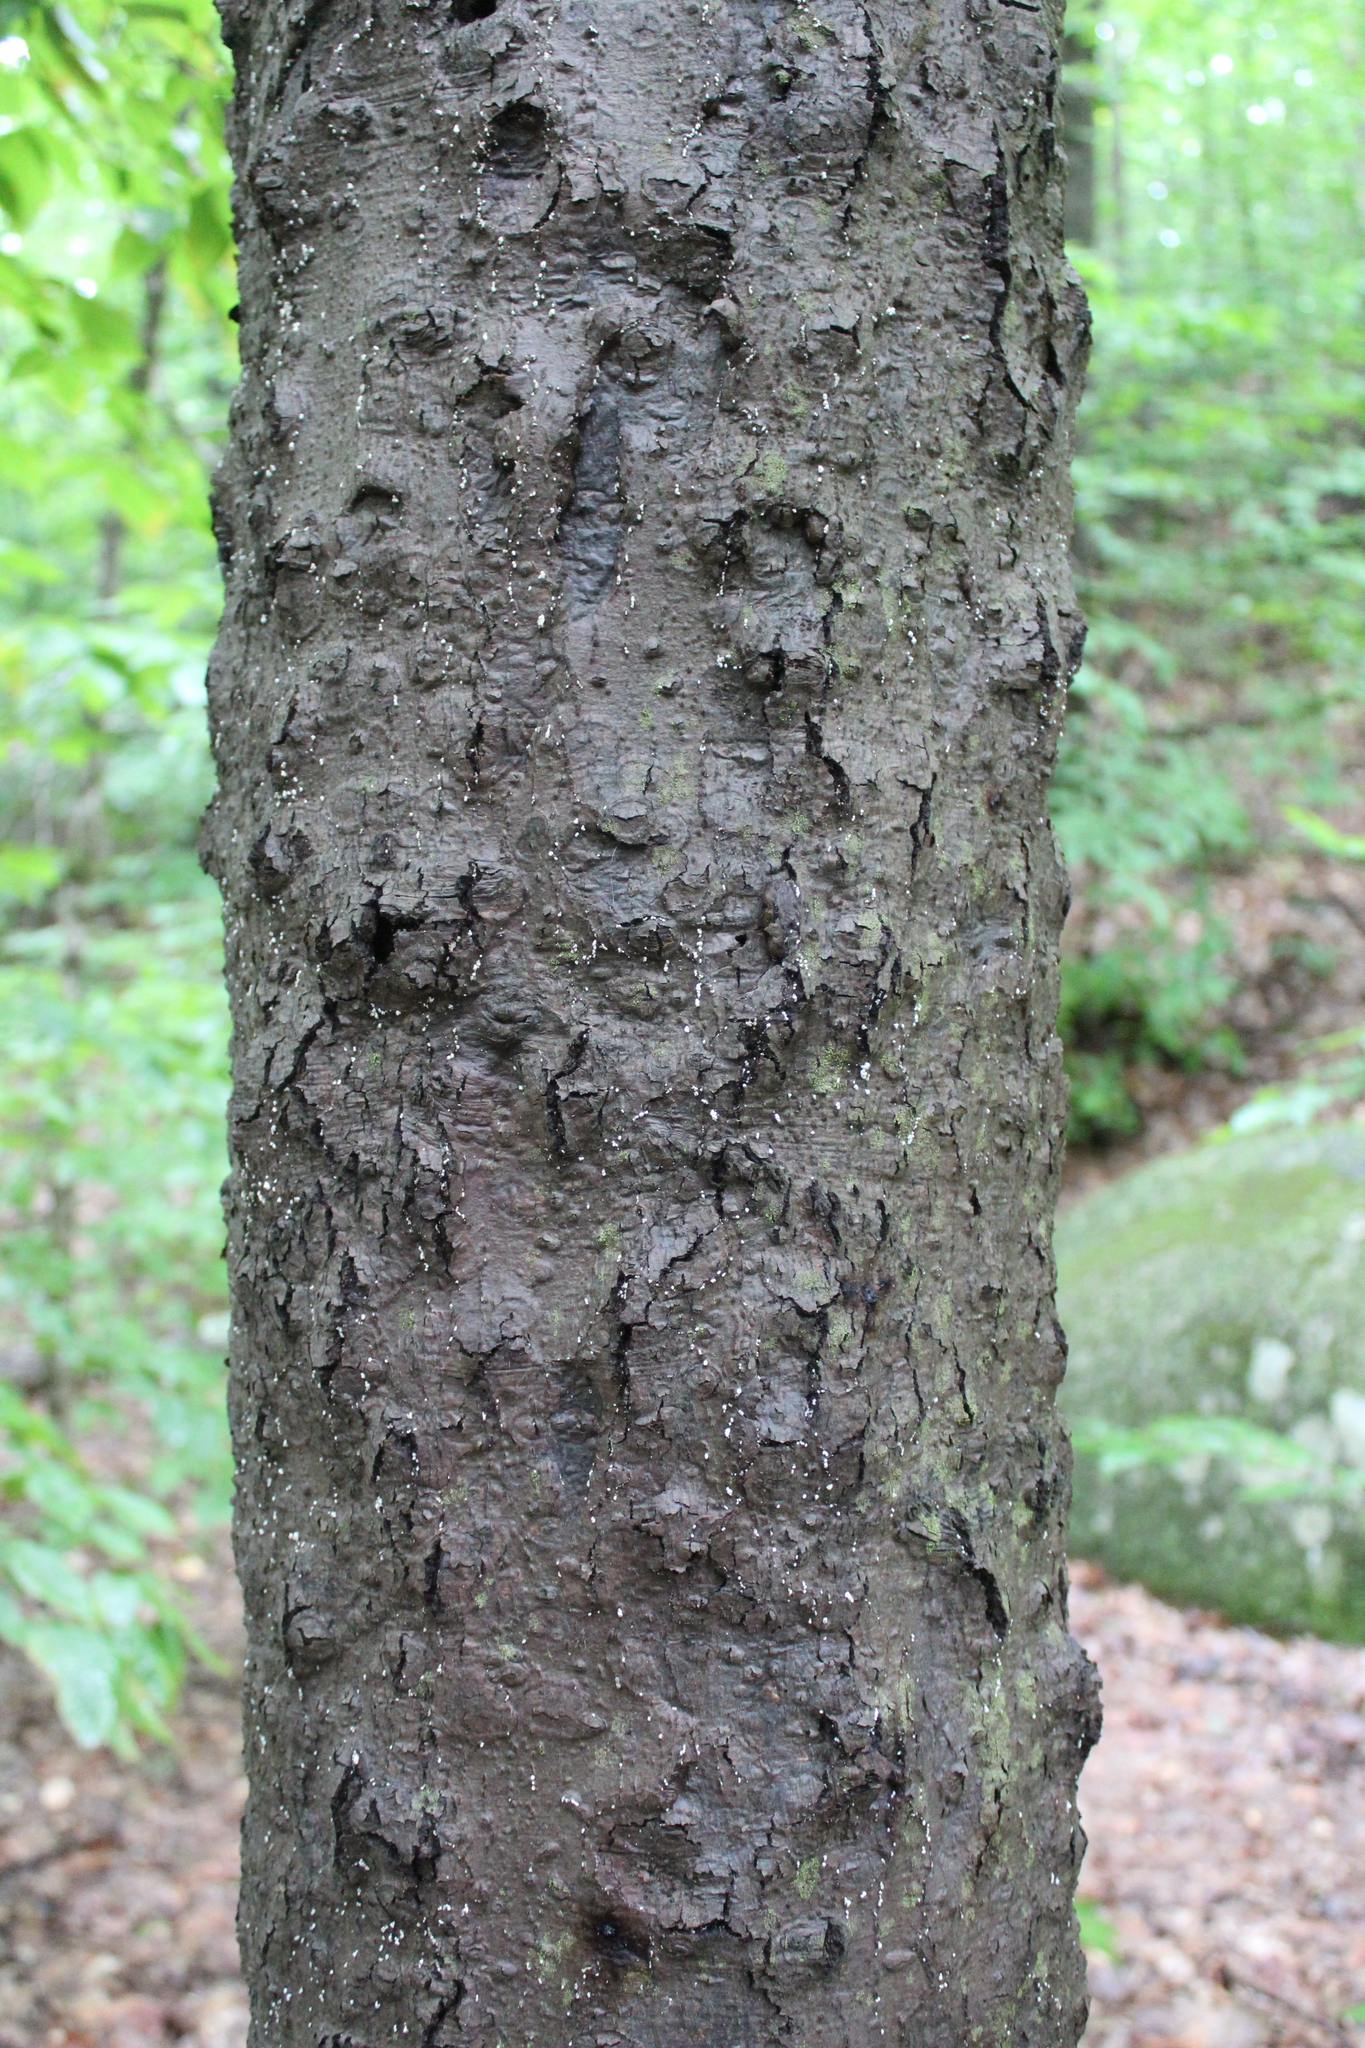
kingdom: Fungi
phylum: Ascomycota
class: Sordariomycetes
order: Hypocreales
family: Nectriaceae
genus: Neonectria
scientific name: Neonectria faginata
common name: Beech bark canker
